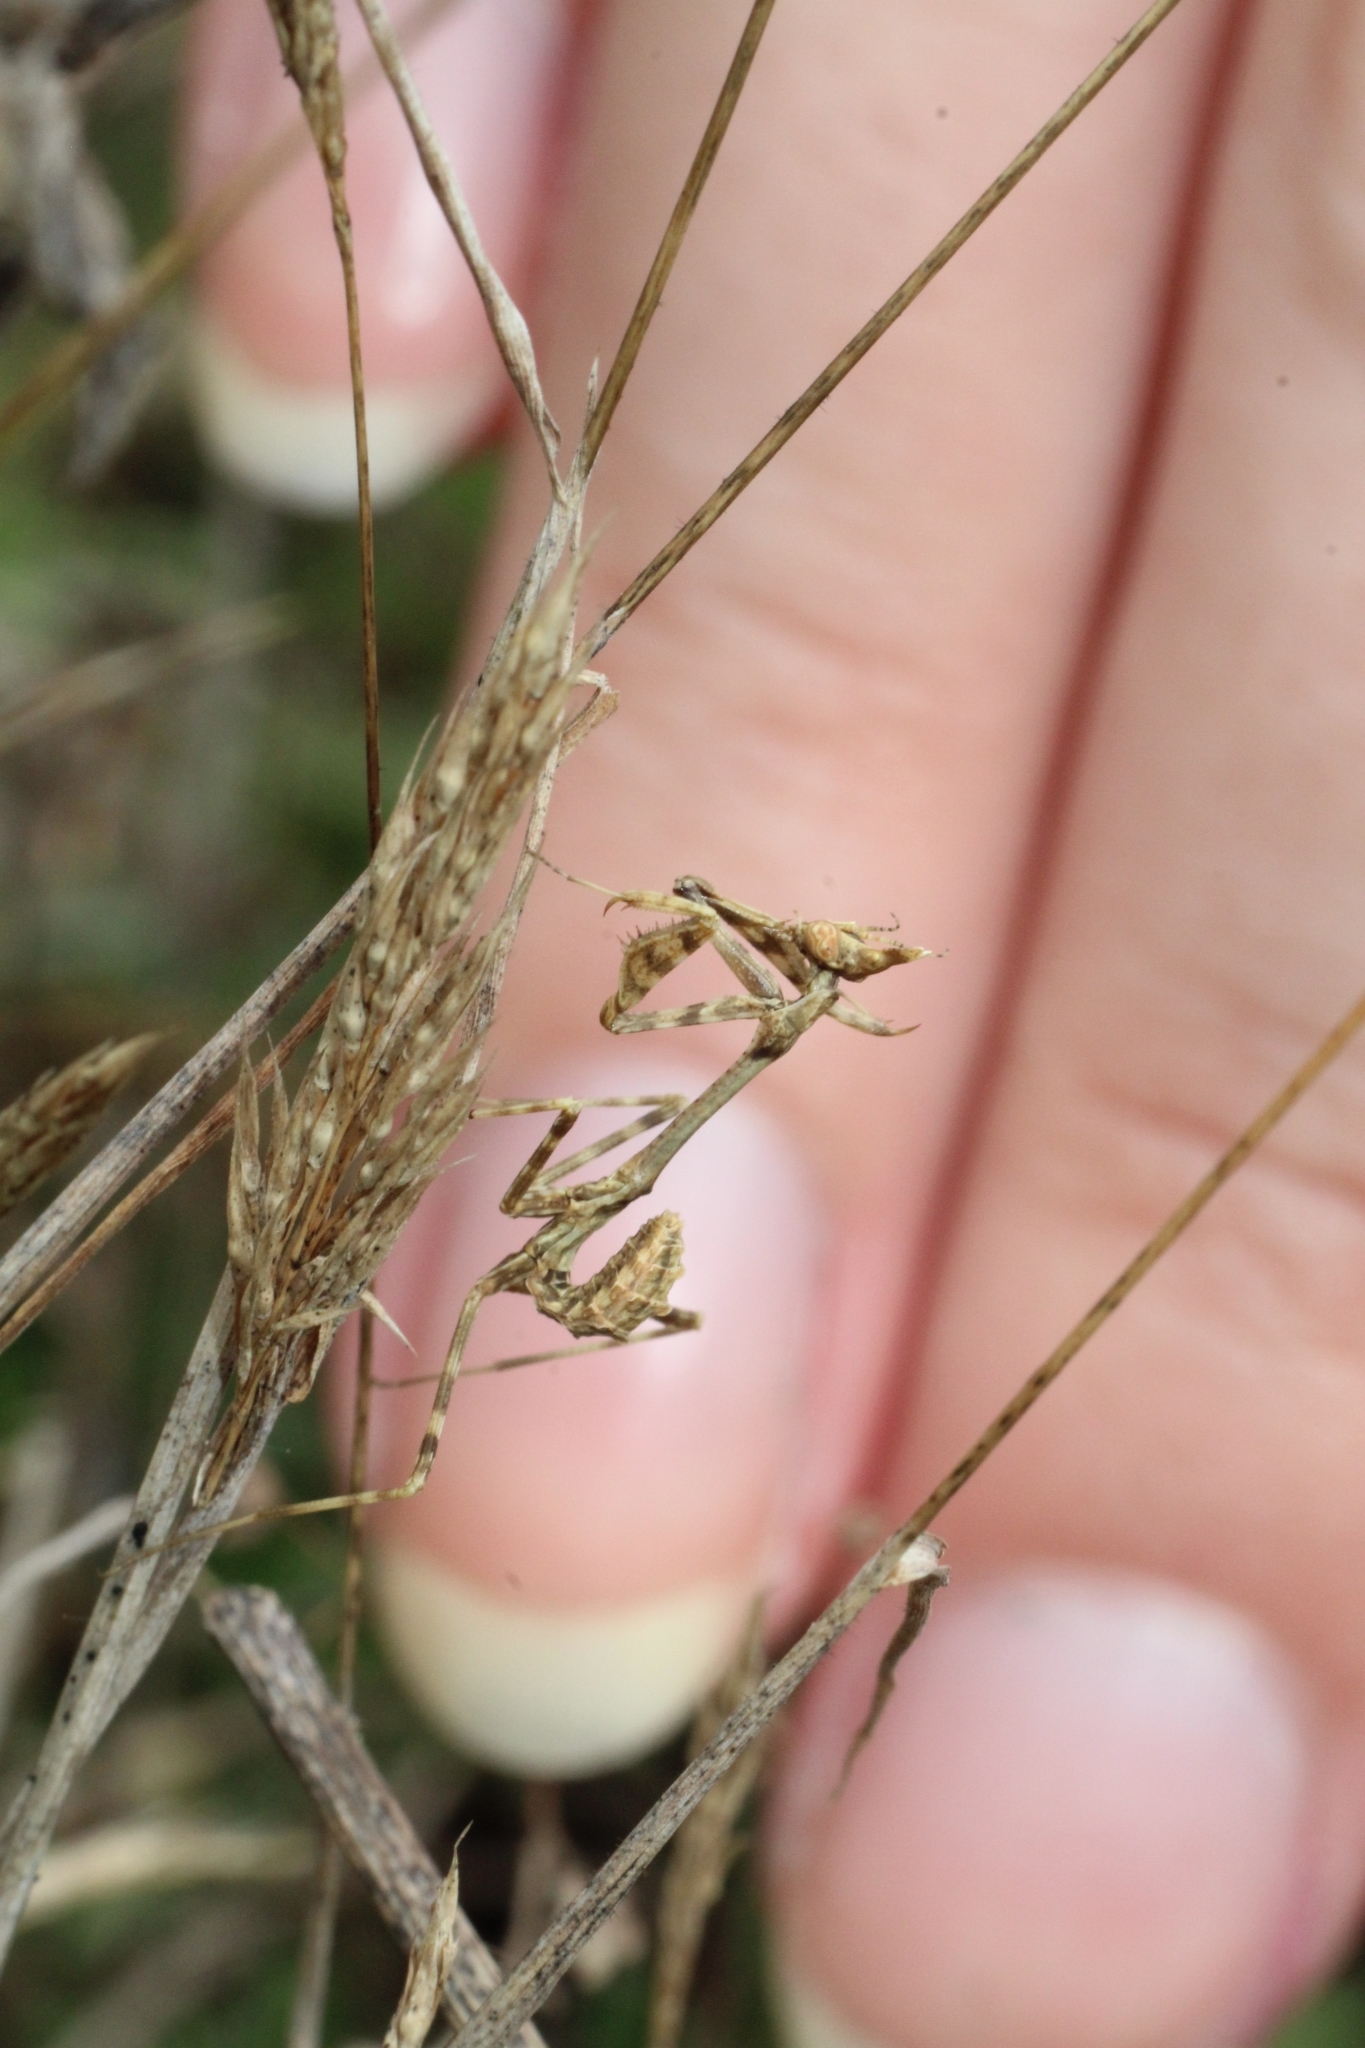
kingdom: Animalia
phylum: Arthropoda
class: Insecta
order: Mantodea
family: Empusidae
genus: Empusa
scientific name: Empusa pennata
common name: Conehead mantis
